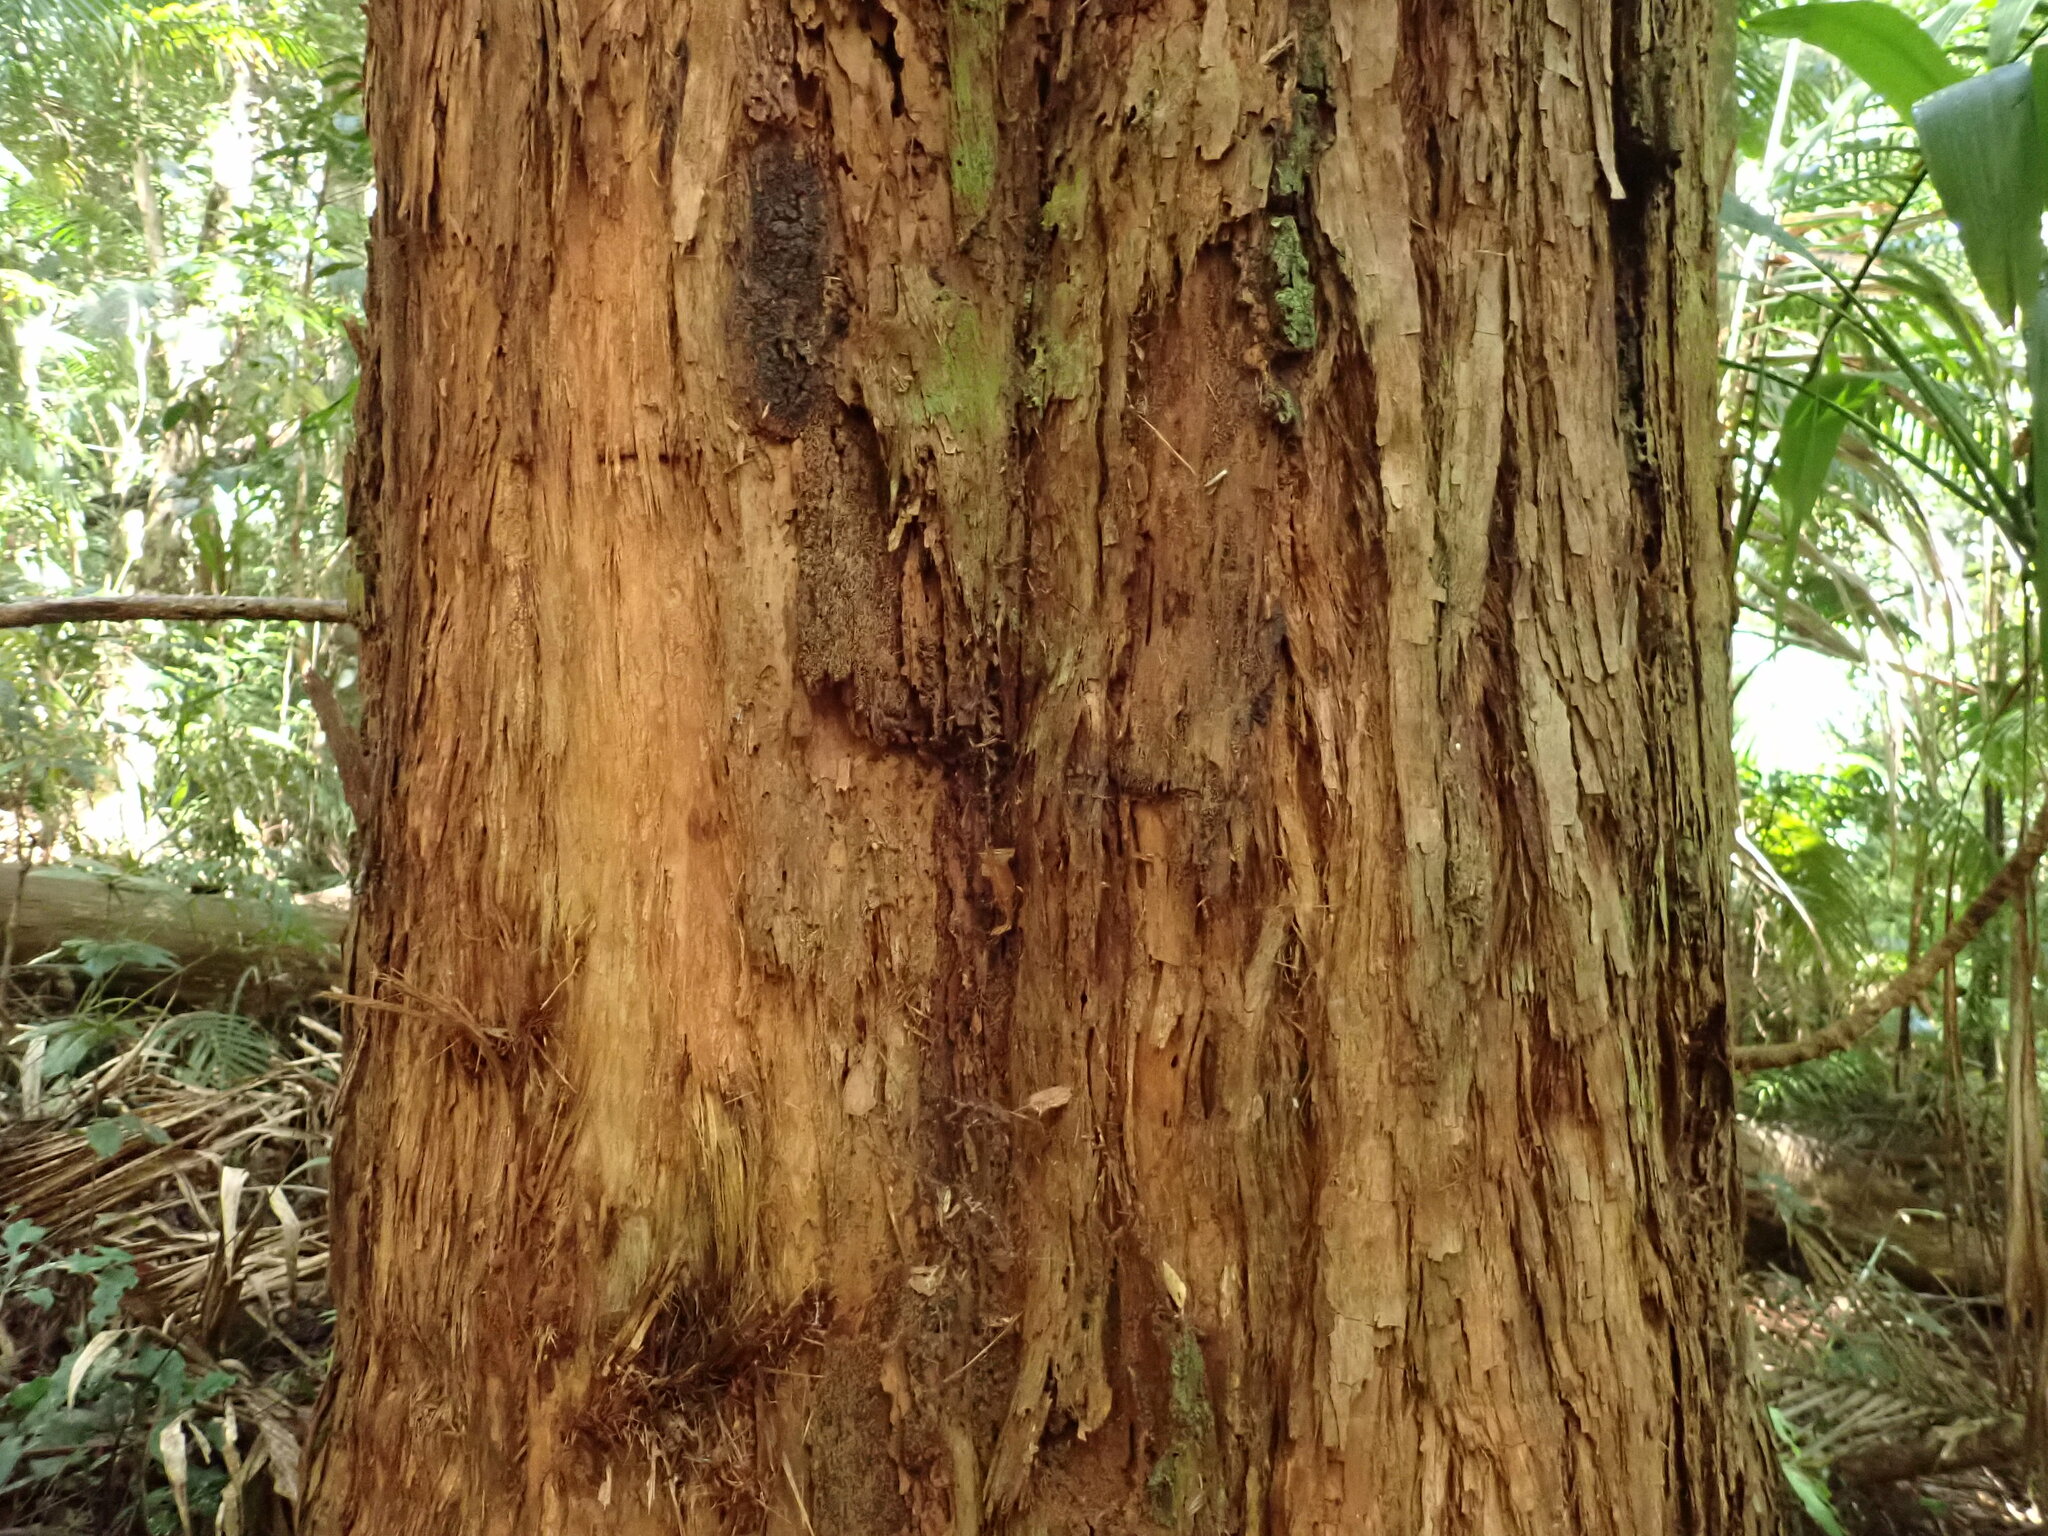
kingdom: Plantae
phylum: Tracheophyta
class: Magnoliopsida
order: Myrtales
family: Myrtaceae
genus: Eucalyptus
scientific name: Eucalyptus microcorys
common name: Tallowwood
